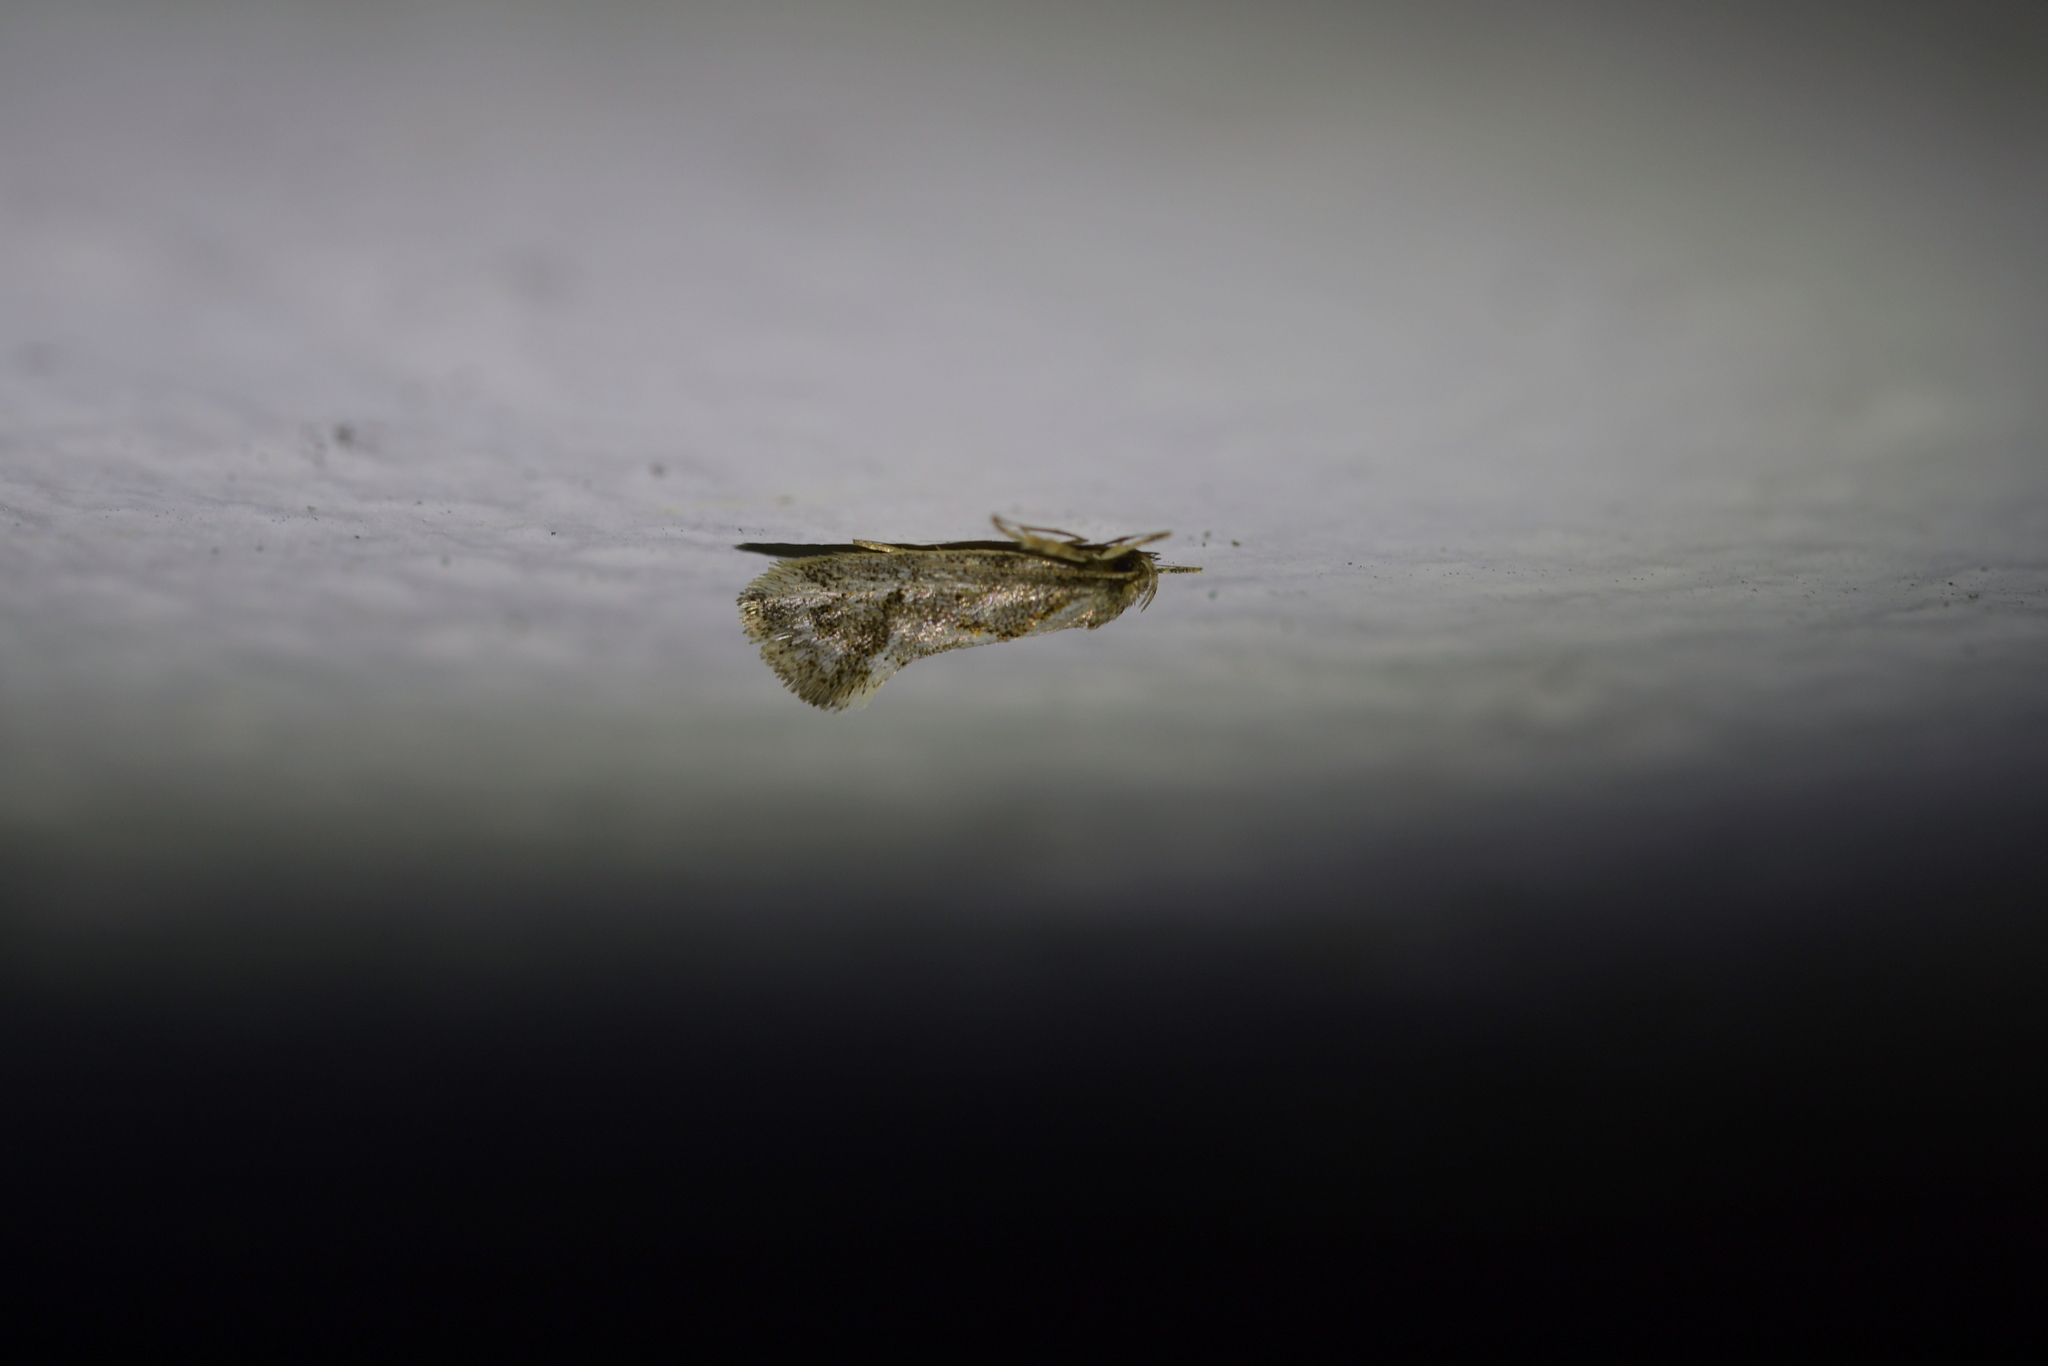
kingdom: Animalia
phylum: Arthropoda
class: Insecta
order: Lepidoptera
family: Oecophoridae
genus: Tingena
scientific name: Tingena hemimochla
